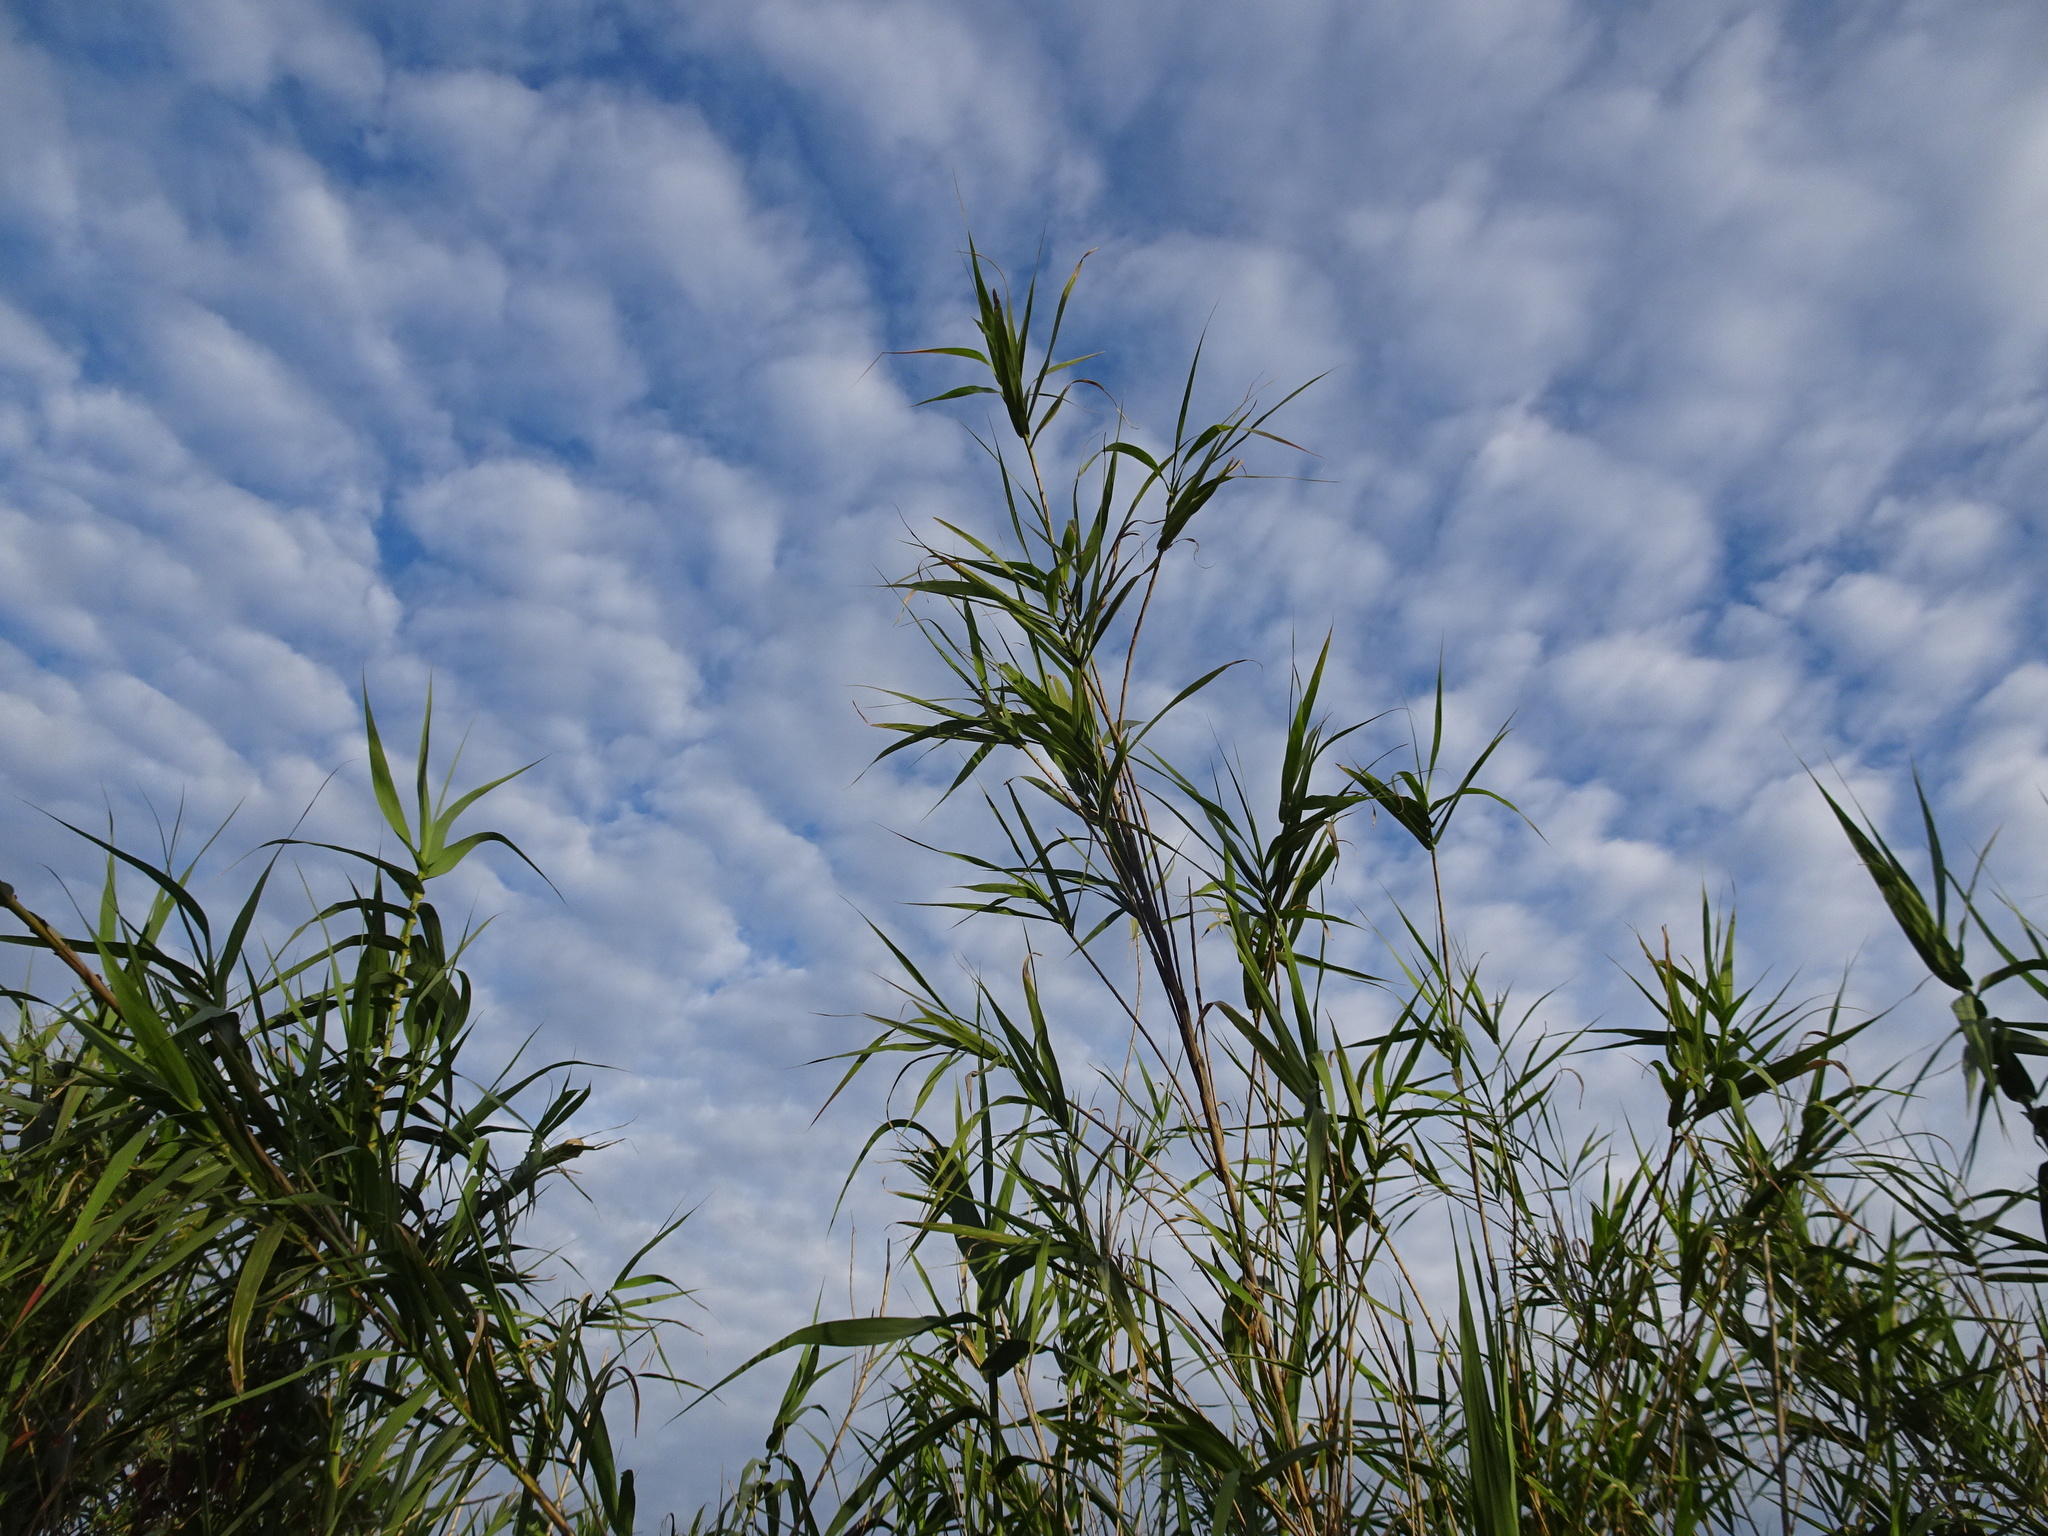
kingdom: Plantae
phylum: Tracheophyta
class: Liliopsida
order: Poales
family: Poaceae
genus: Arundo
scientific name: Arundo donax
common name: Giant reed
